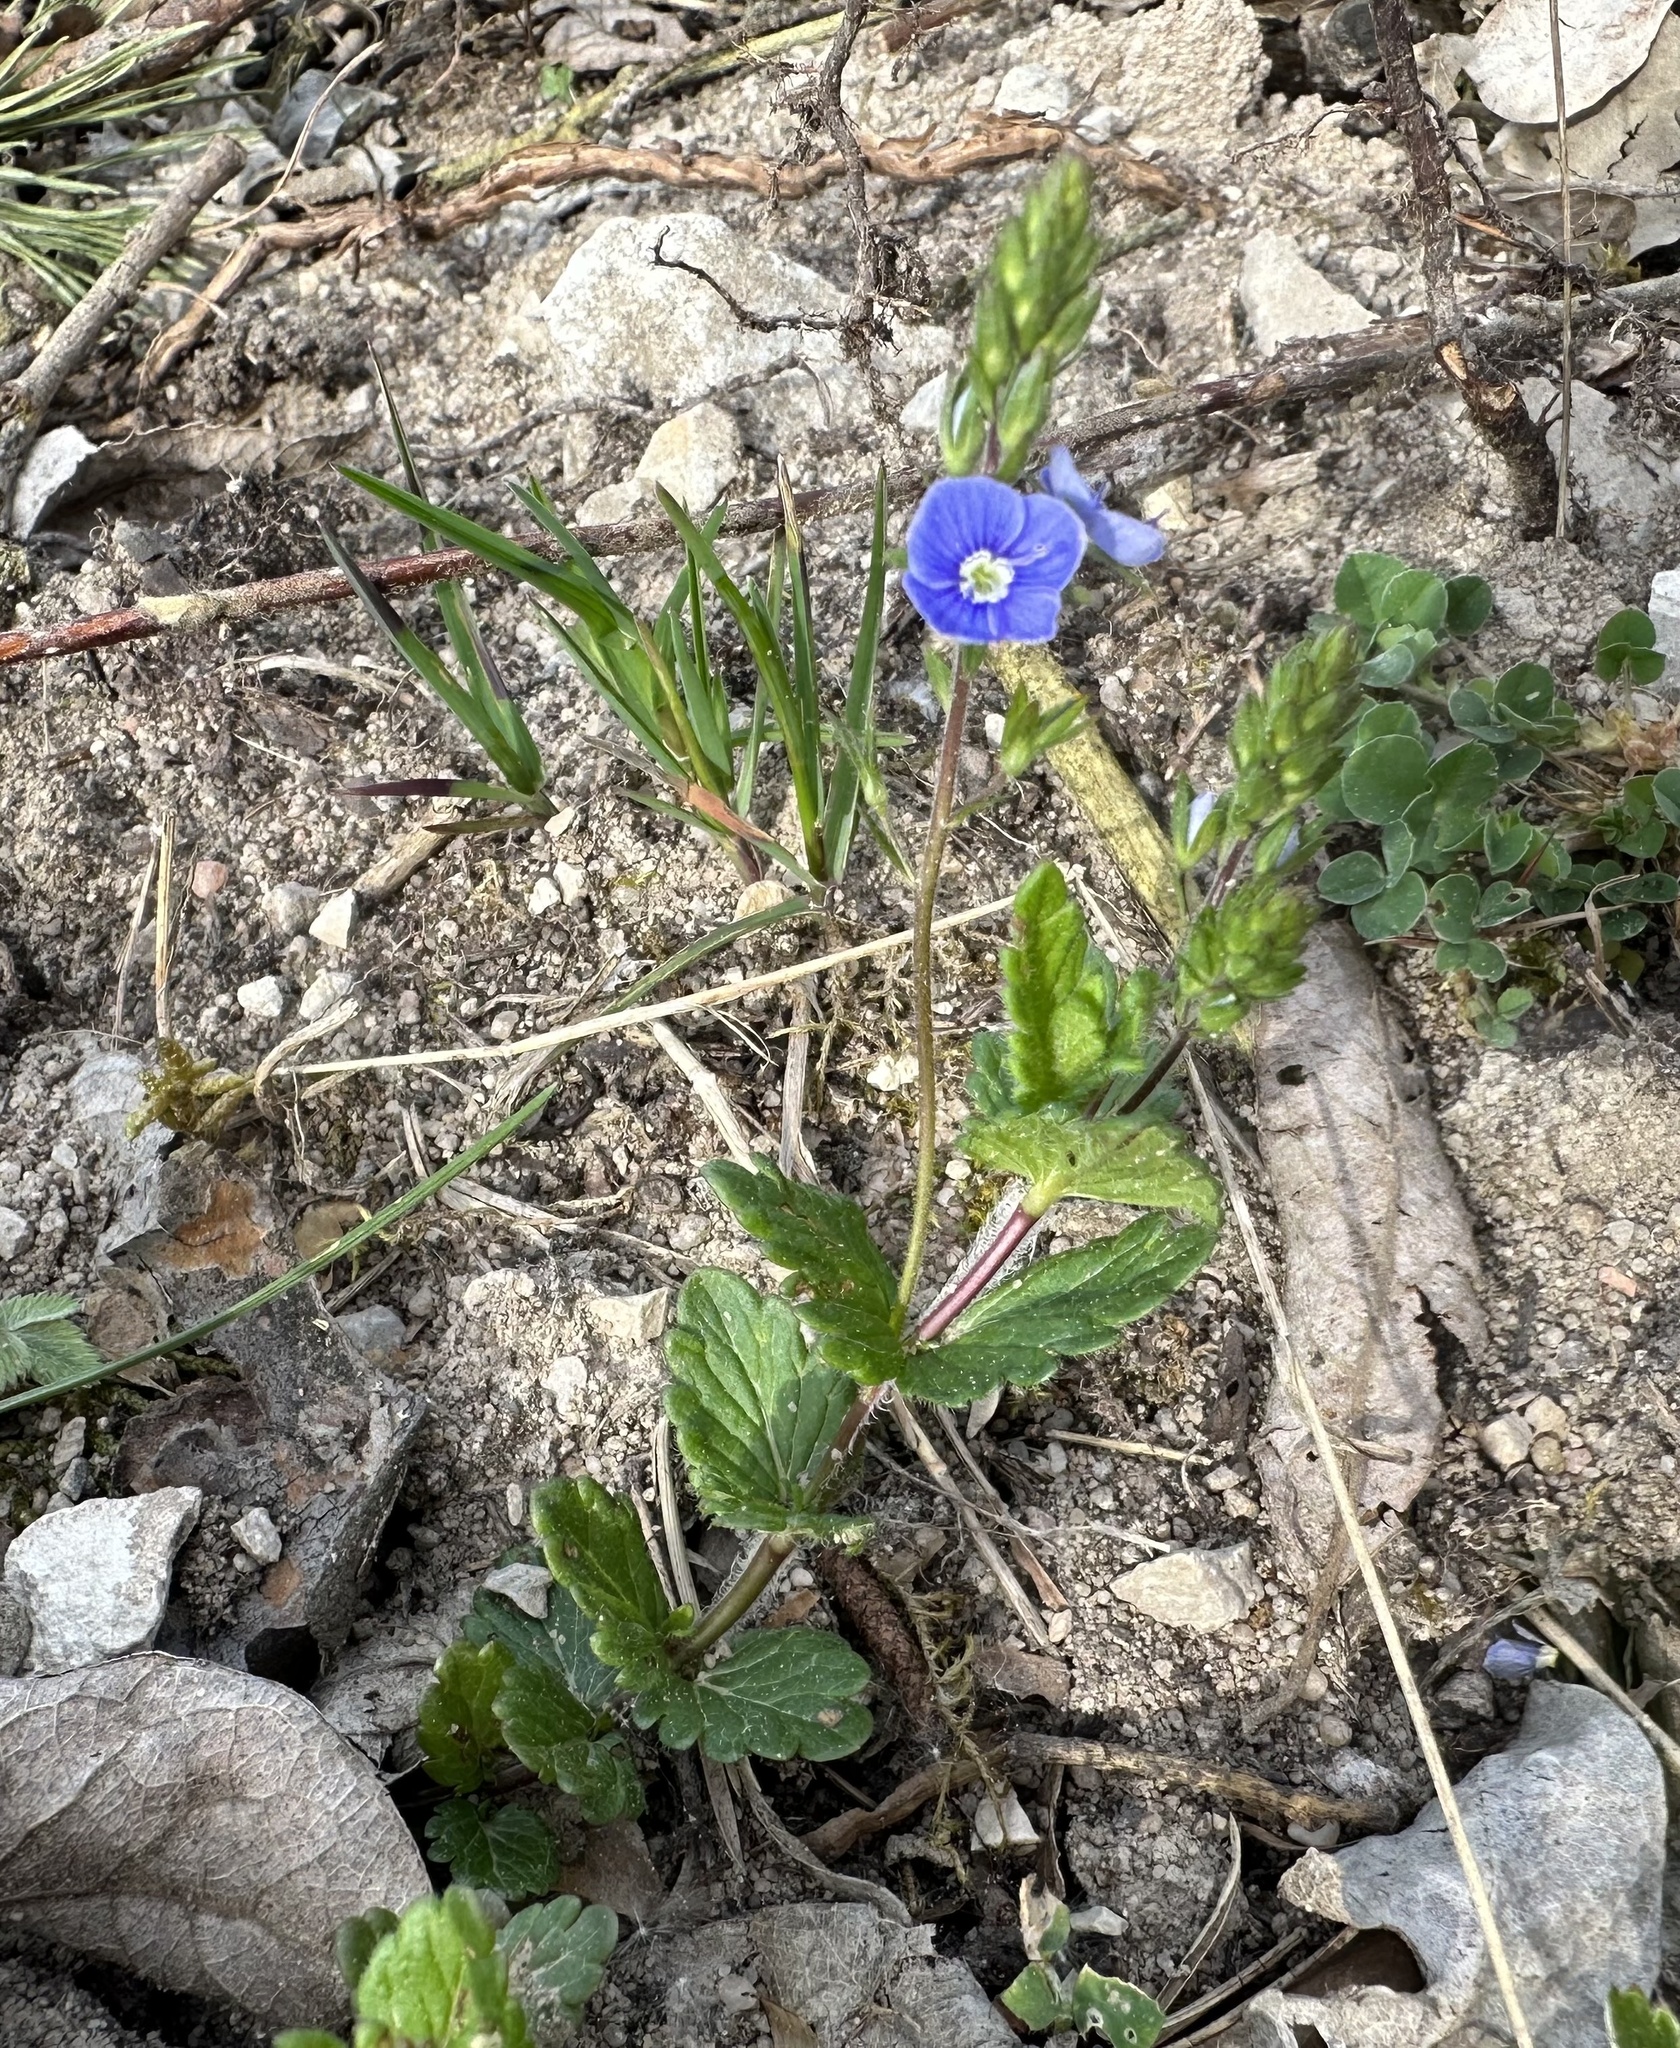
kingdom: Plantae
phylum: Tracheophyta
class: Magnoliopsida
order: Lamiales
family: Plantaginaceae
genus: Veronica
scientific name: Veronica chamaedrys
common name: Germander speedwell
